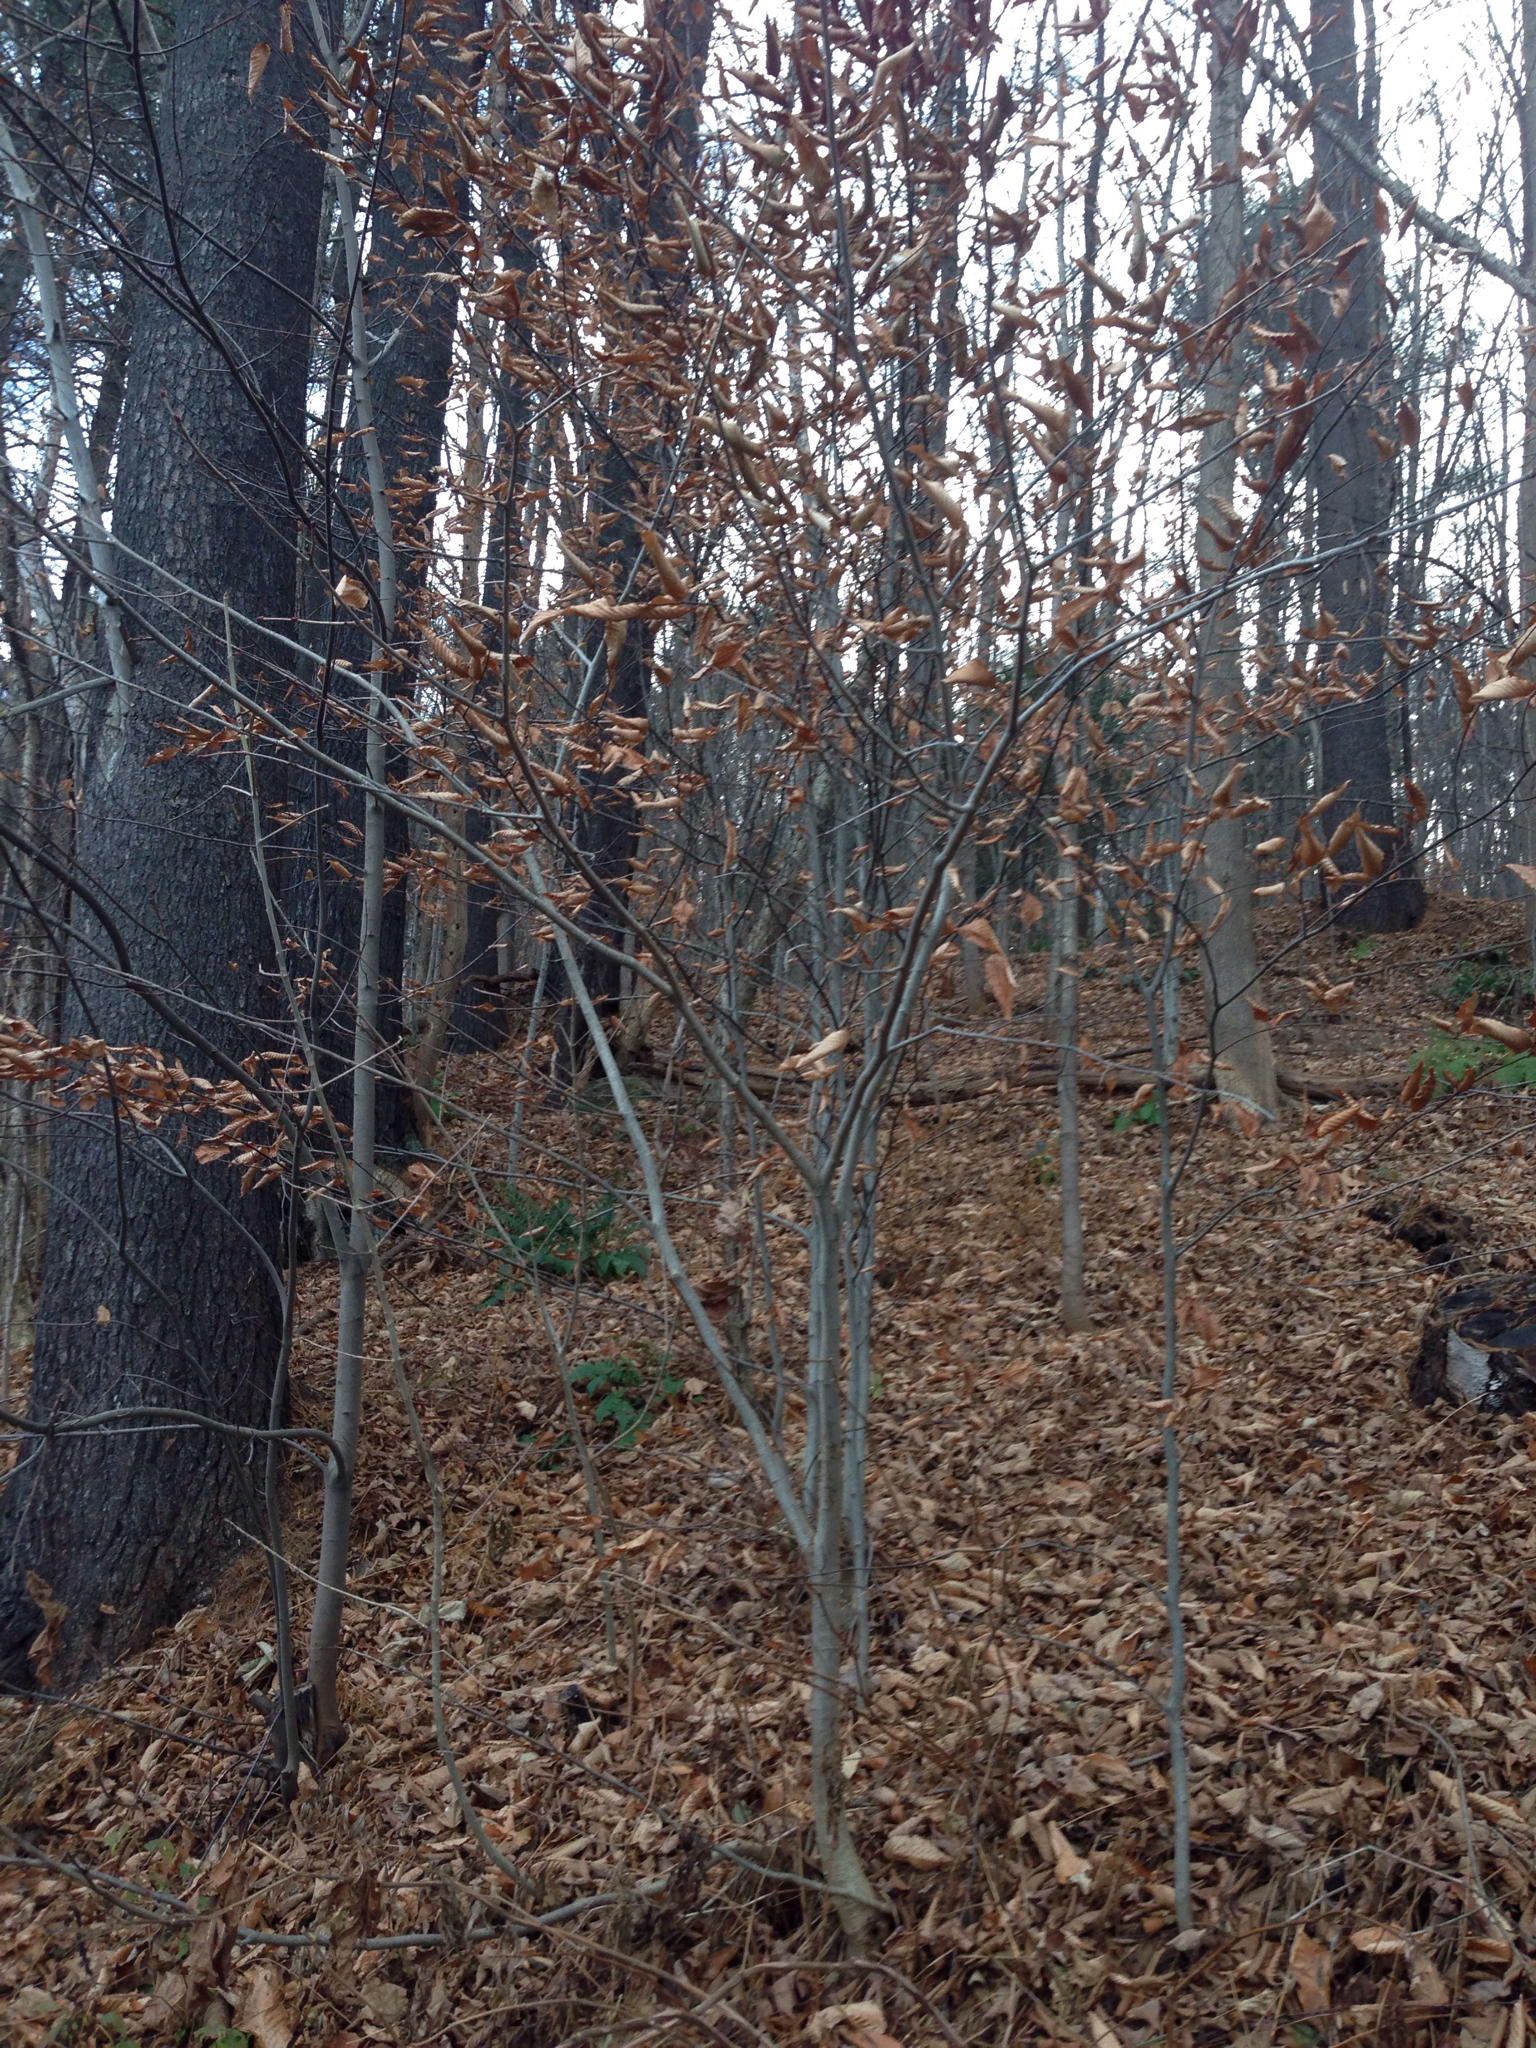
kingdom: Plantae
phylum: Tracheophyta
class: Magnoliopsida
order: Fagales
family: Fagaceae
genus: Fagus
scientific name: Fagus grandifolia
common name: American beech
